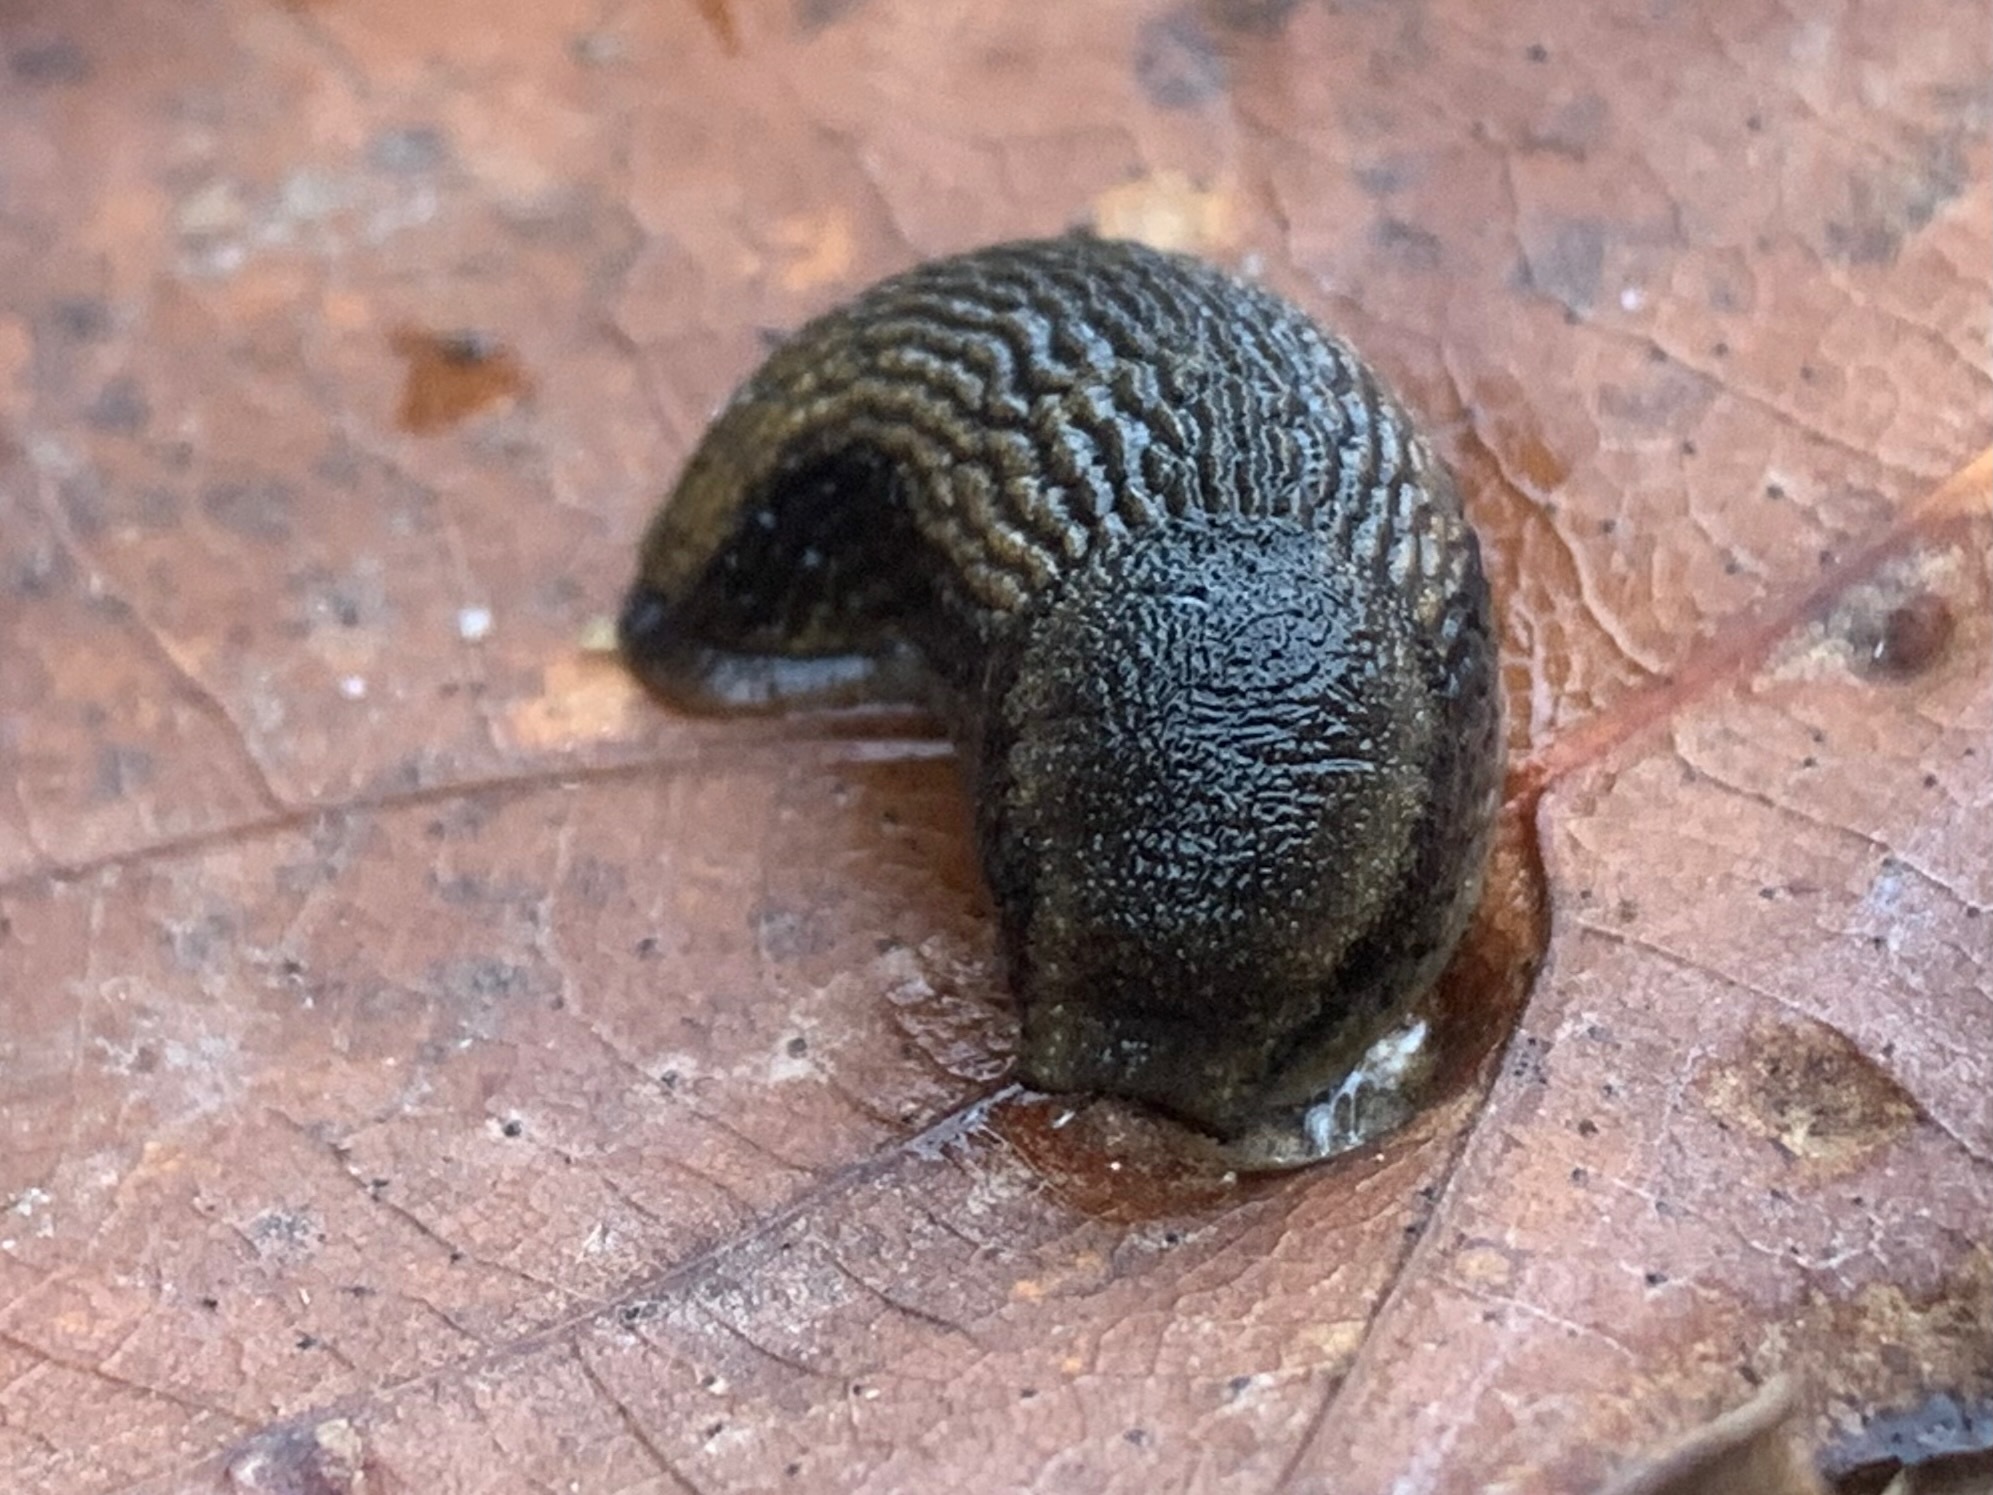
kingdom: Animalia
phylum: Mollusca
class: Gastropoda
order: Stylommatophora
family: Arionidae
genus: Arion
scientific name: Arion
